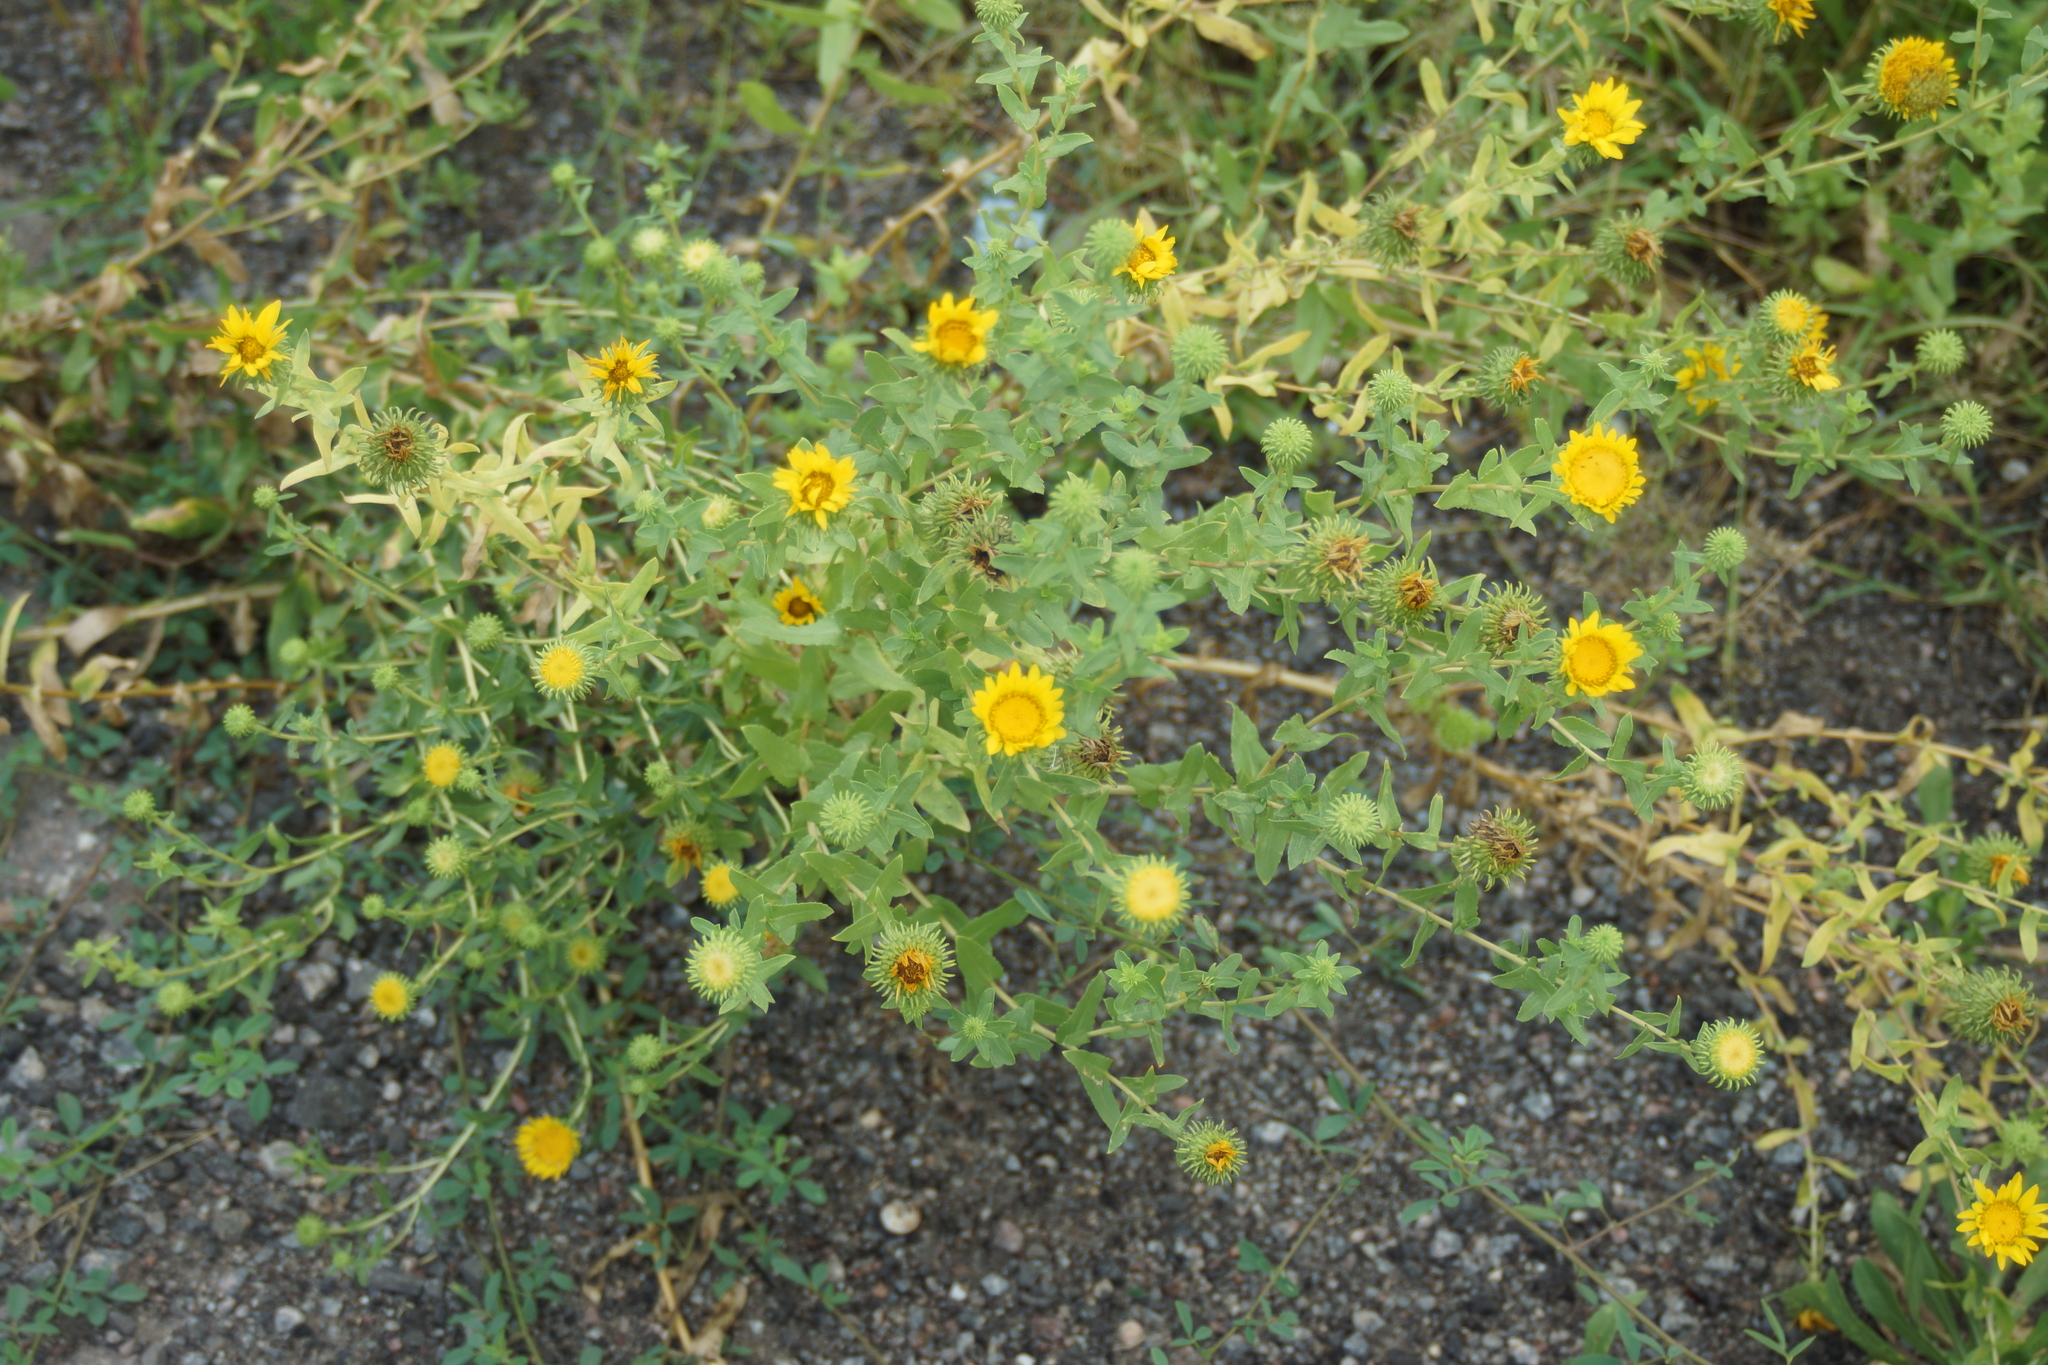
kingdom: Plantae
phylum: Tracheophyta
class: Magnoliopsida
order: Asterales
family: Asteraceae
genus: Grindelia
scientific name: Grindelia squarrosa
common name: Curly-cup gumweed
